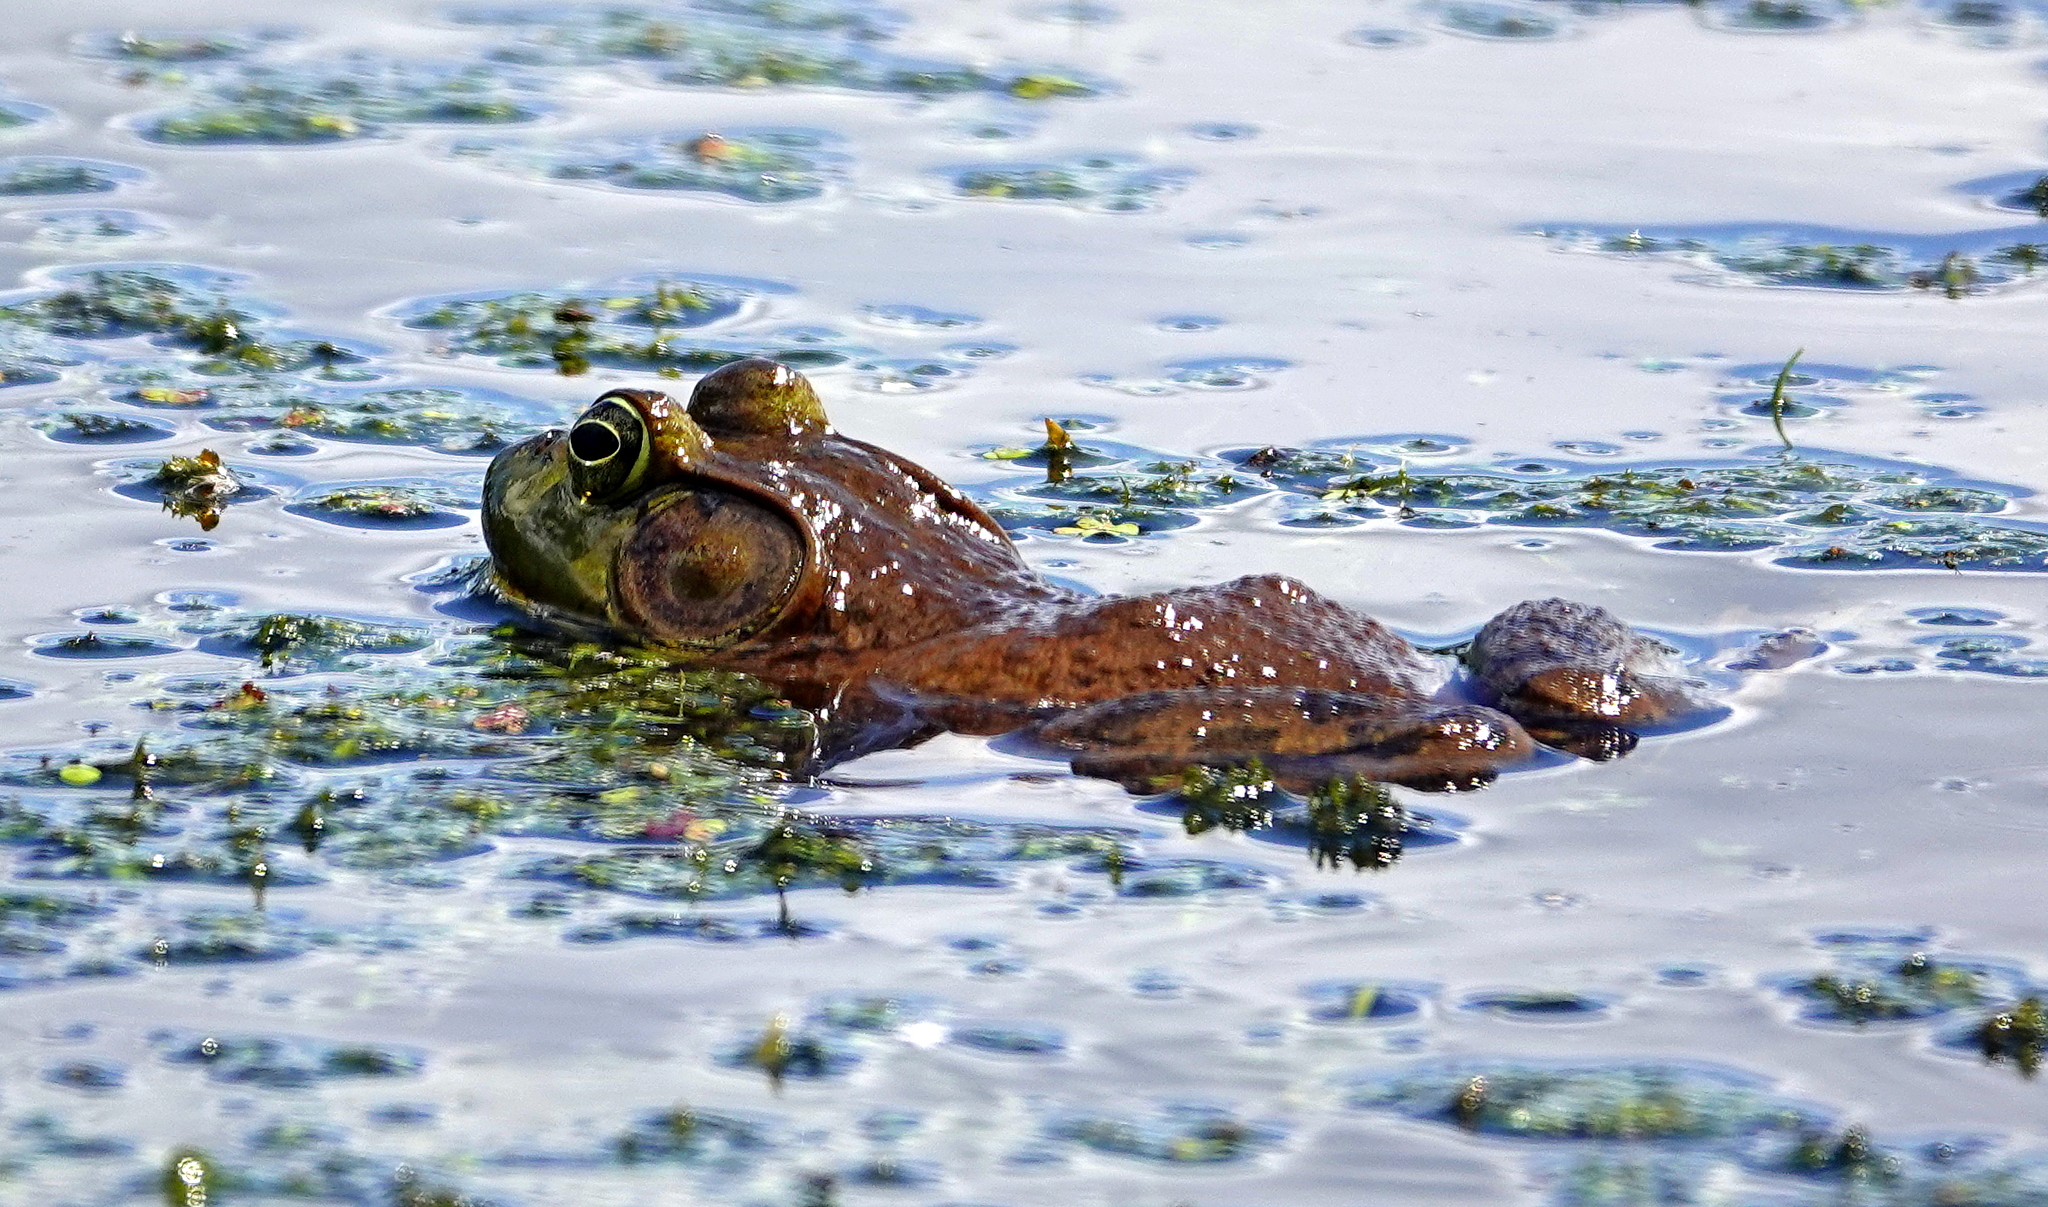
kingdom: Animalia
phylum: Chordata
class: Amphibia
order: Anura
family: Ranidae
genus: Lithobates
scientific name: Lithobates catesbeianus
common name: American bullfrog
